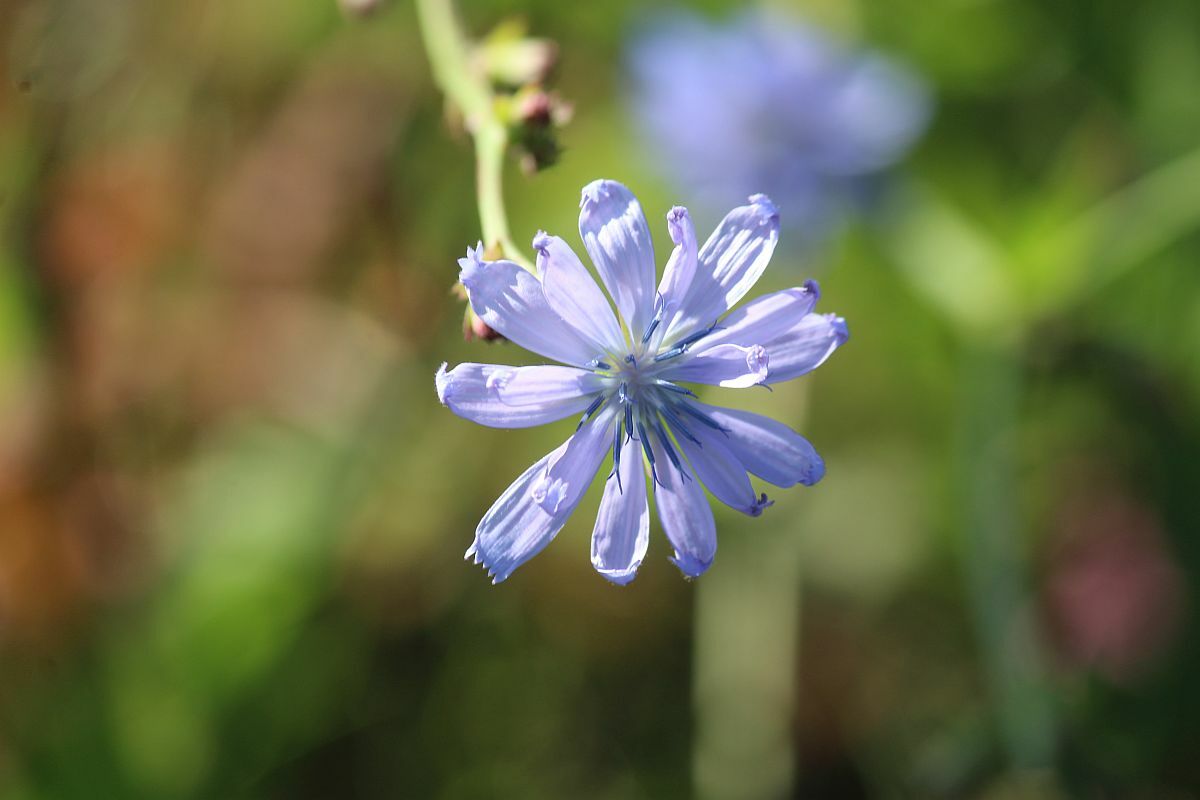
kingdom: Plantae
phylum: Tracheophyta
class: Magnoliopsida
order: Asterales
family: Asteraceae
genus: Cichorium
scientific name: Cichorium intybus
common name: Chicory
